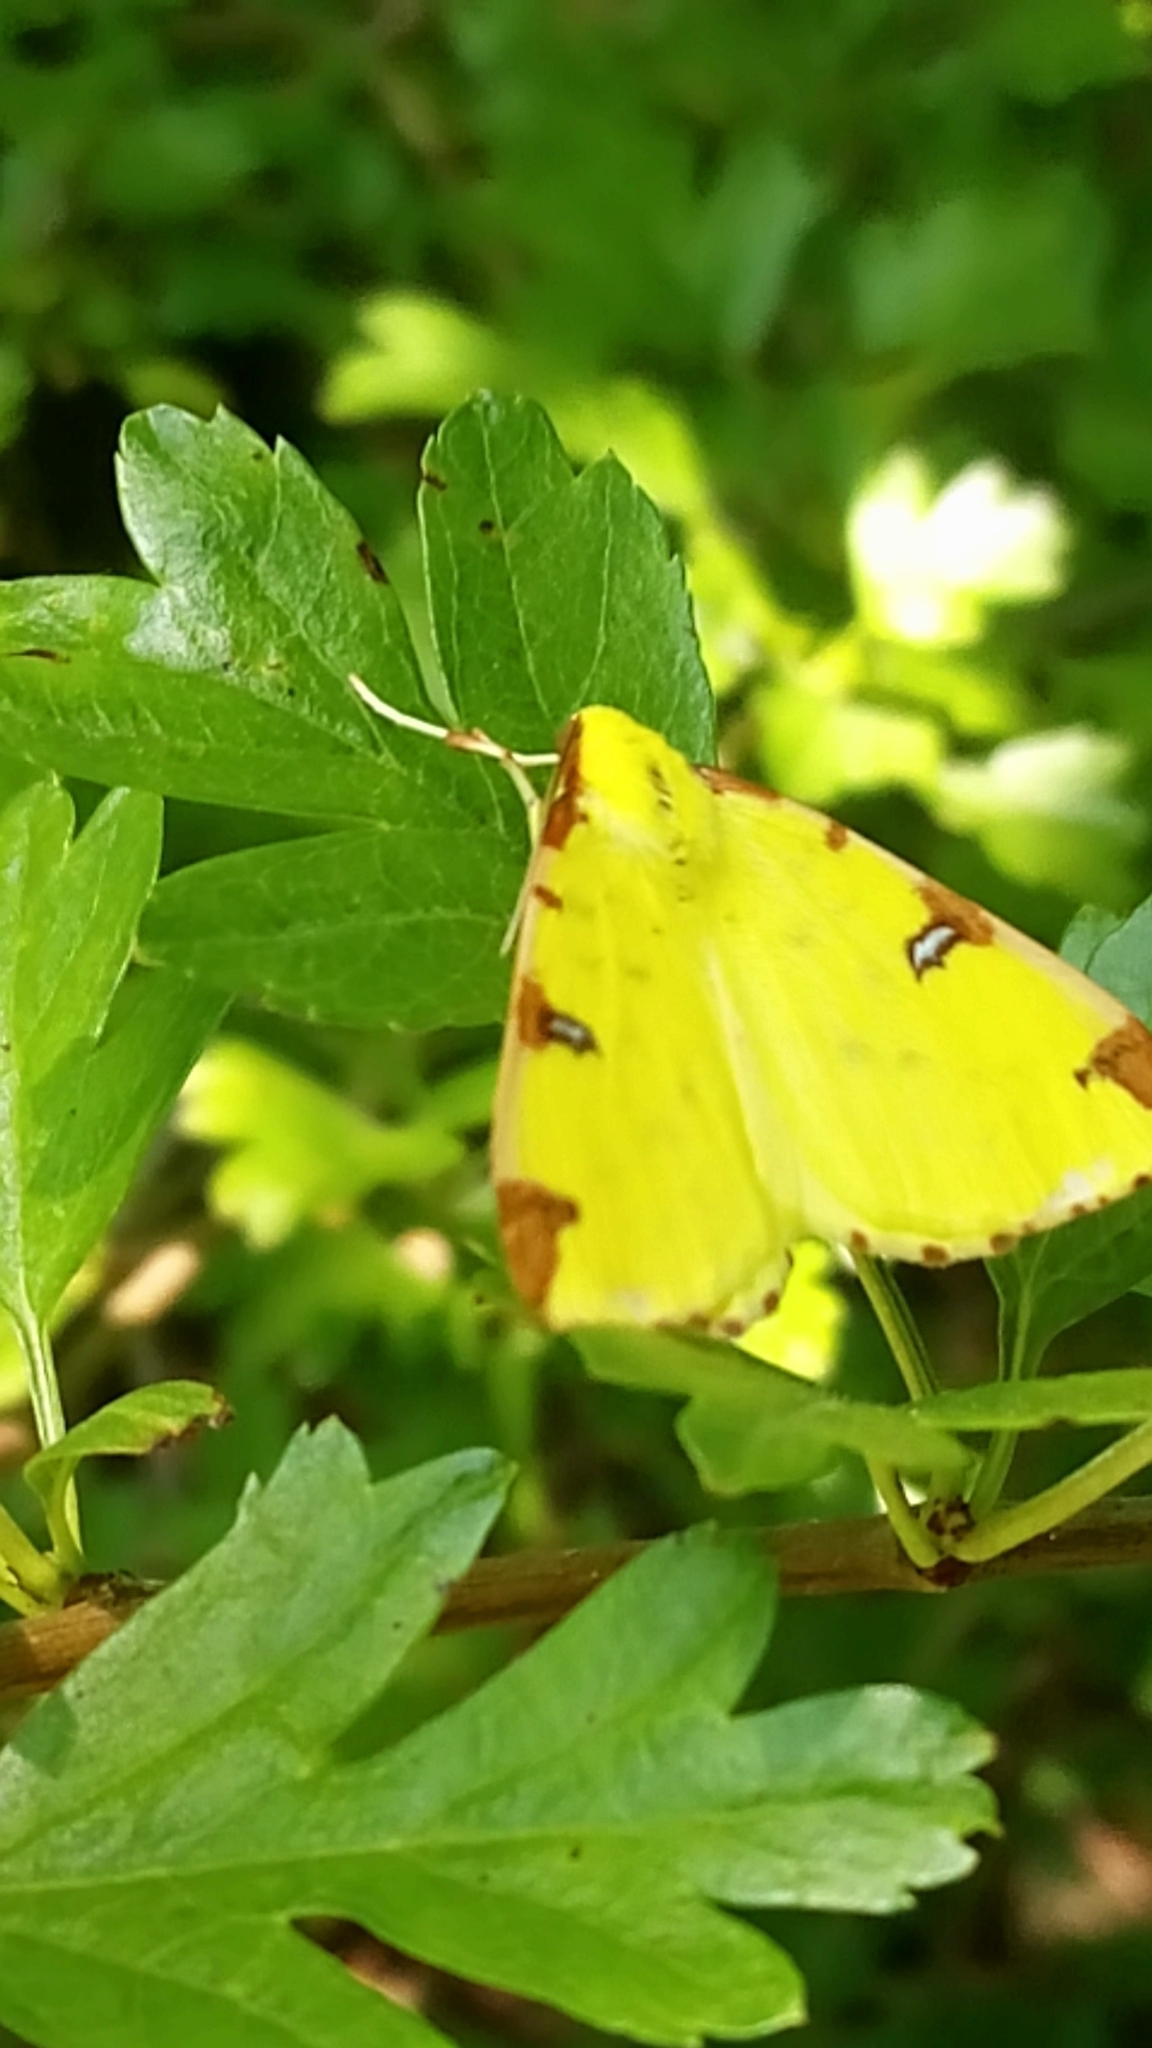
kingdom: Animalia
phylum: Arthropoda
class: Insecta
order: Lepidoptera
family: Geometridae
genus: Opisthograptis
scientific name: Opisthograptis luteolata
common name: Brimstone moth
